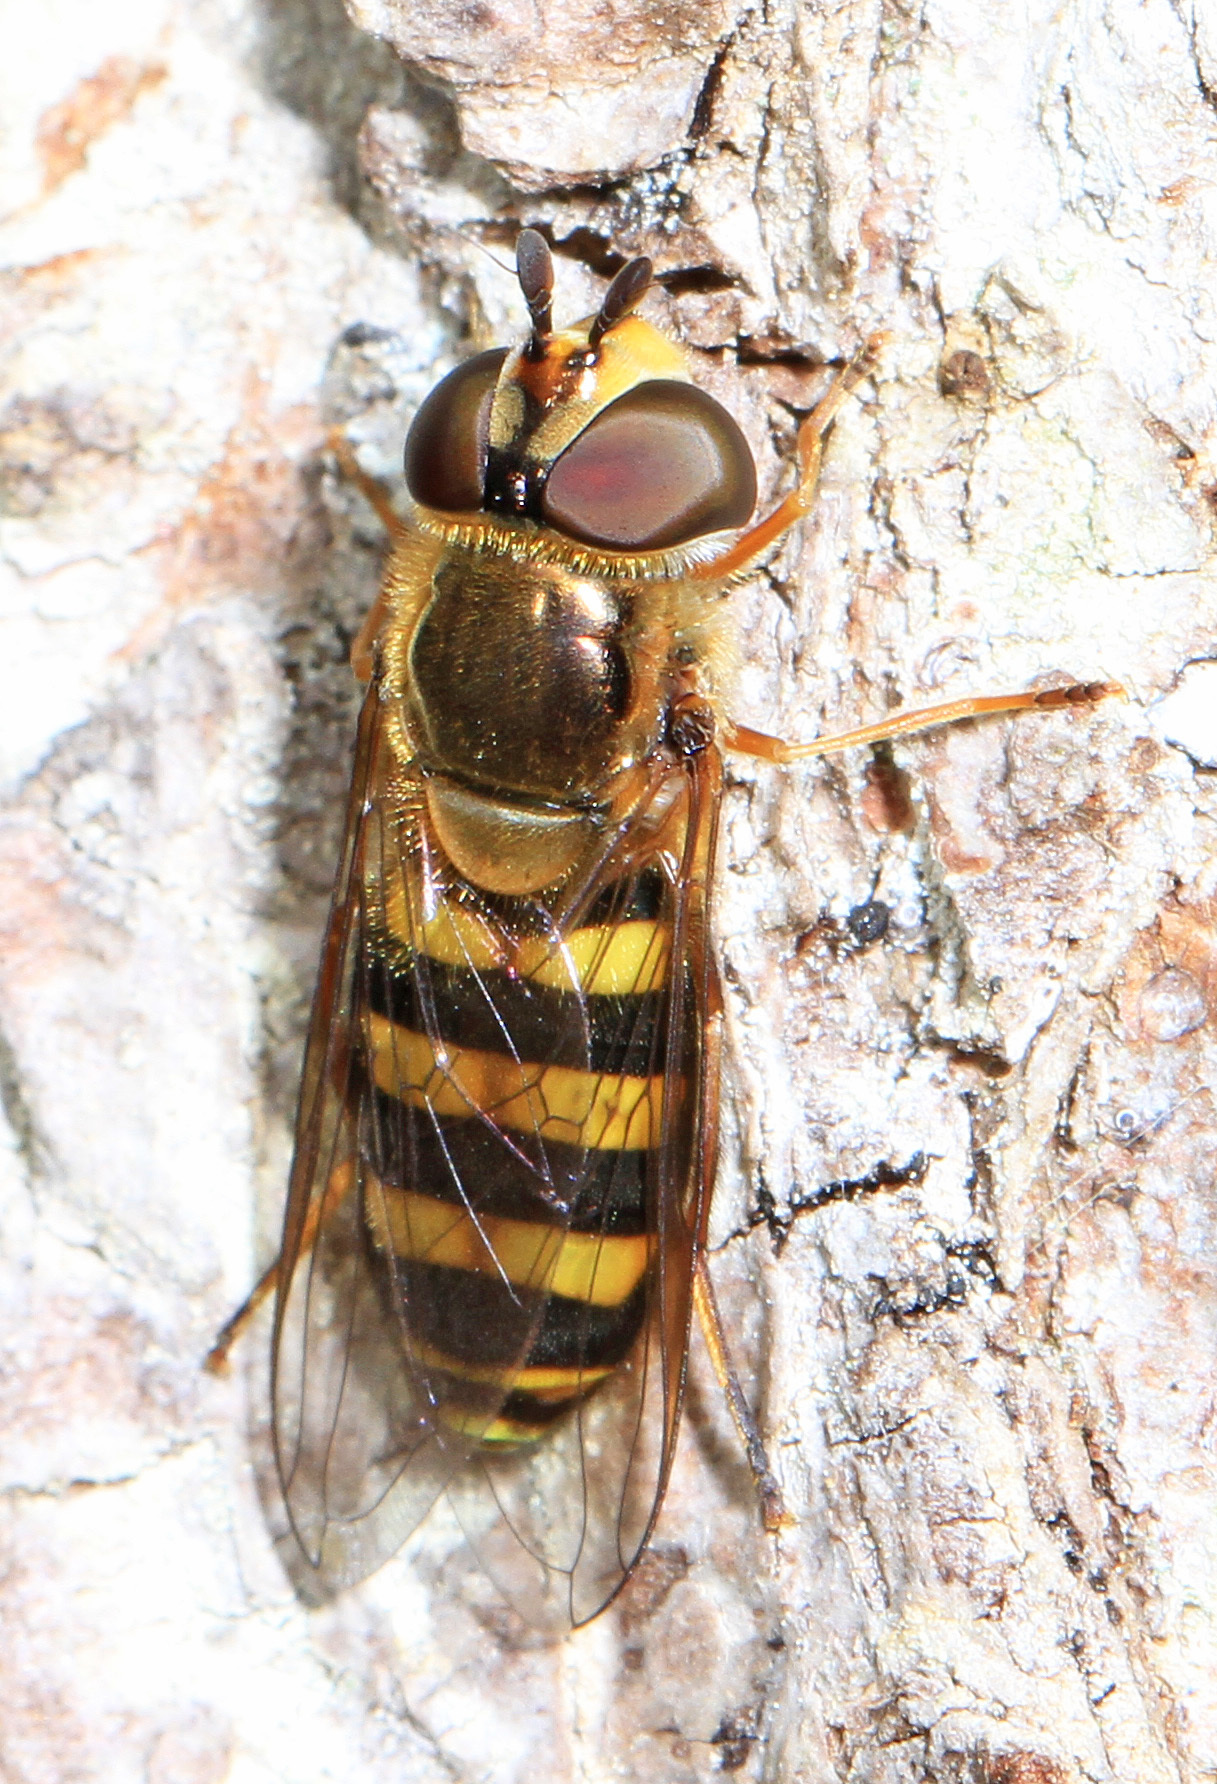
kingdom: Animalia
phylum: Arthropoda
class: Insecta
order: Diptera
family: Syrphidae
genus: Eupeodes
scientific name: Eupeodes
